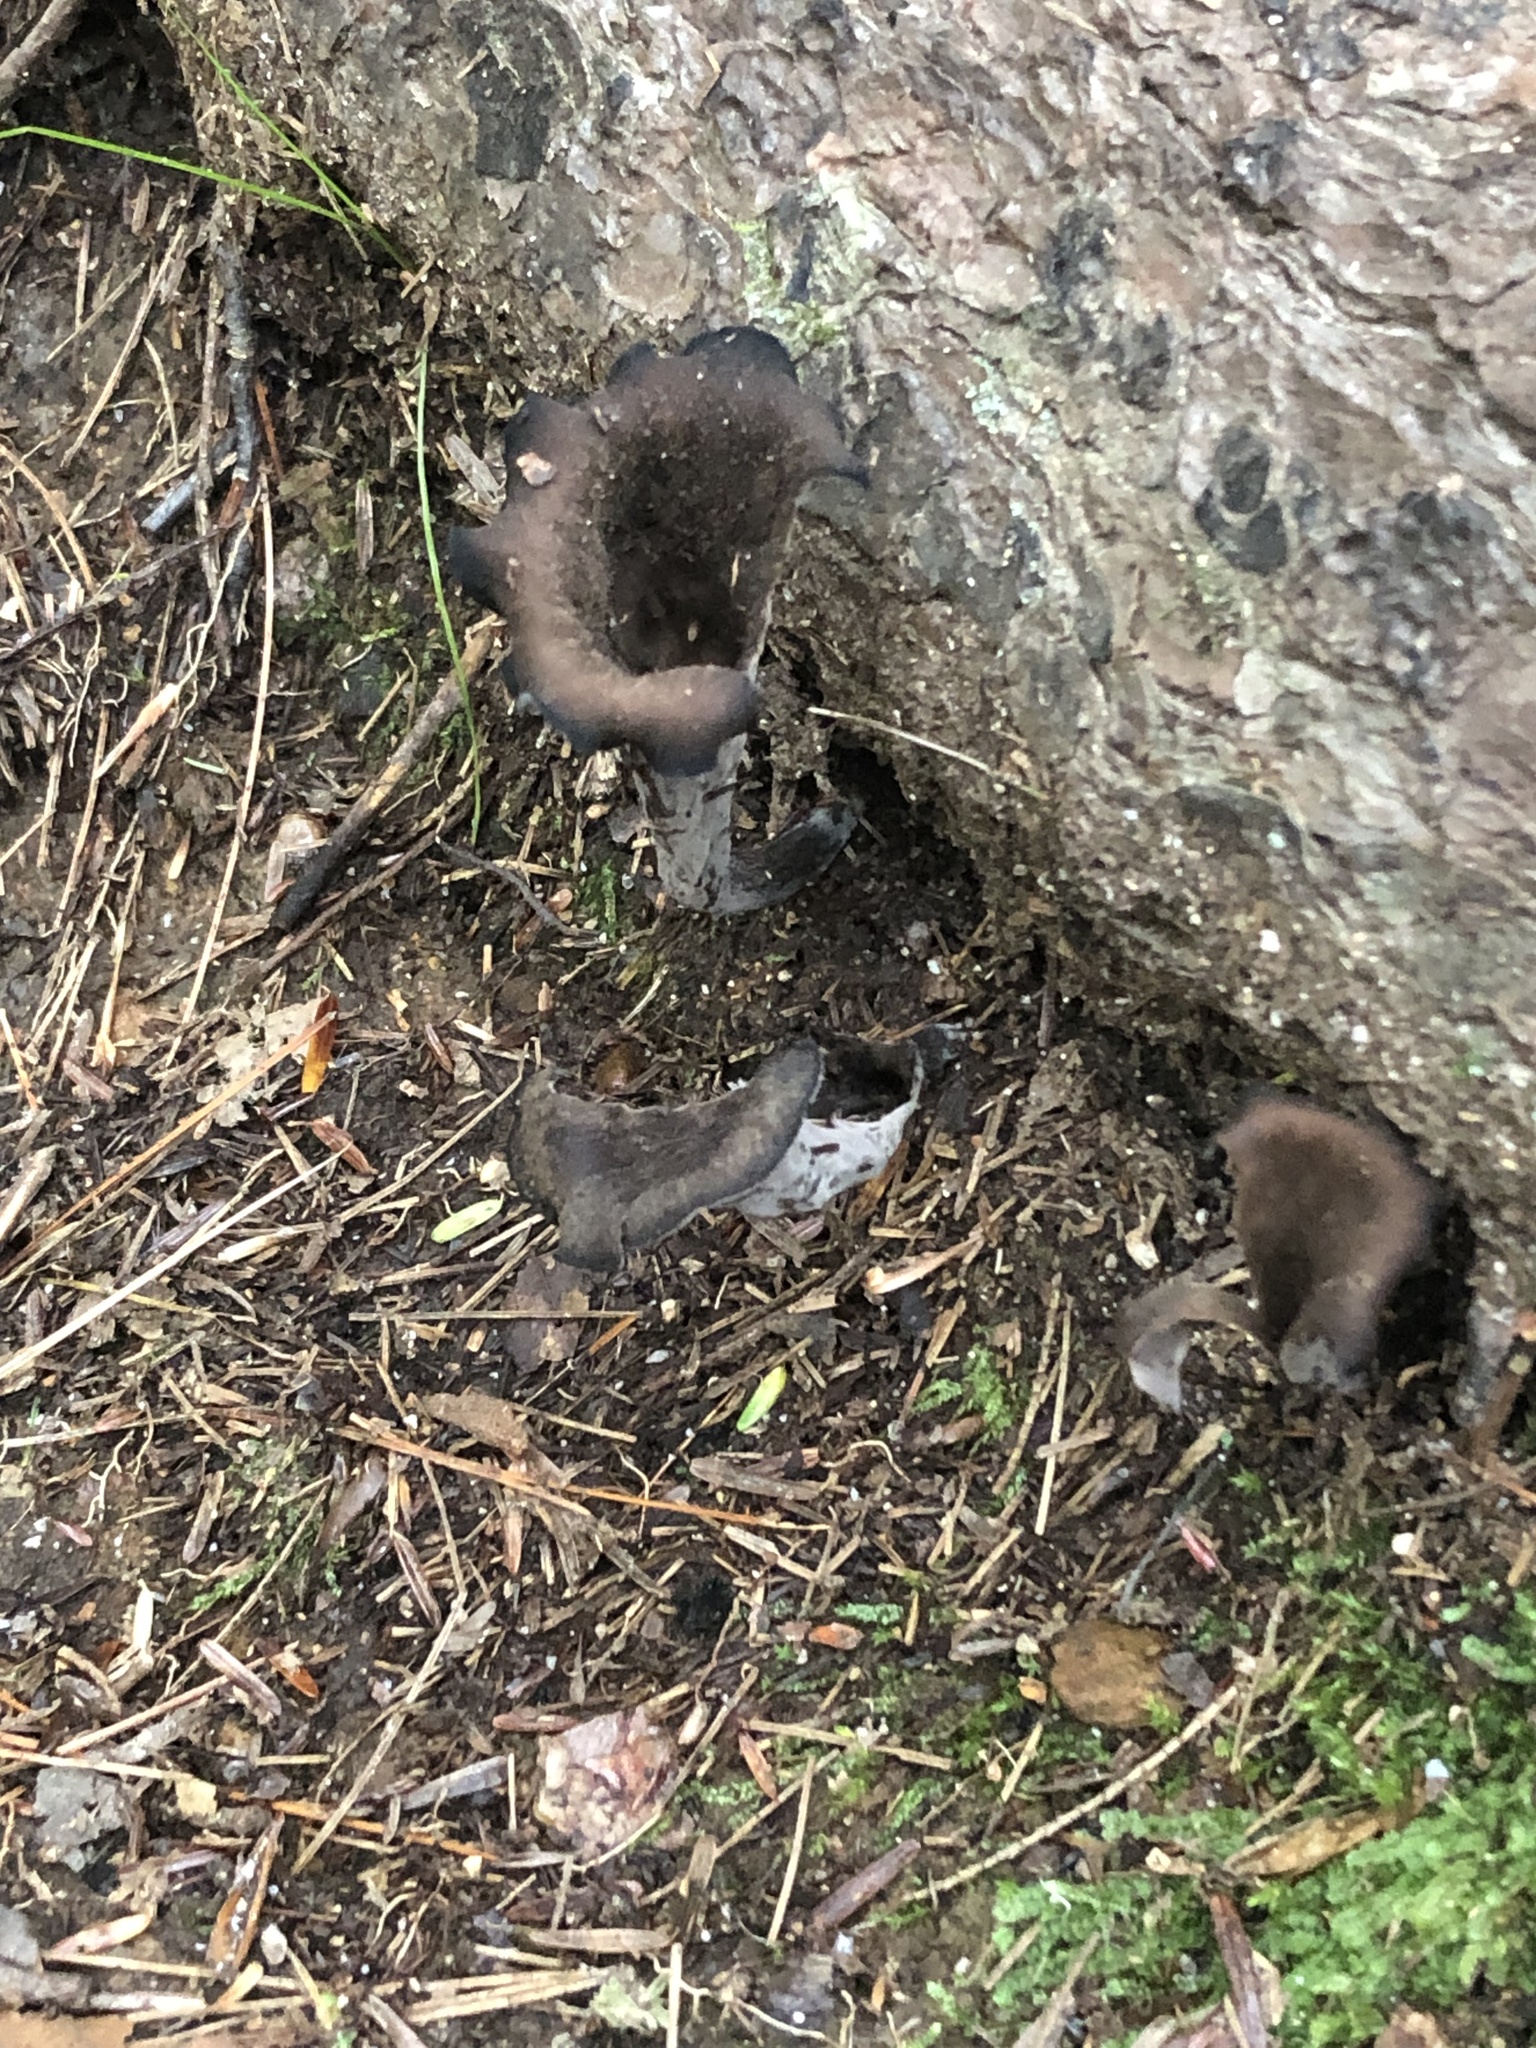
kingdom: Fungi
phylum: Basidiomycota
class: Agaricomycetes
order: Cantharellales
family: Hydnaceae
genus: Craterellus
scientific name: Craterellus cornucopioides
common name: Horn of plenty
